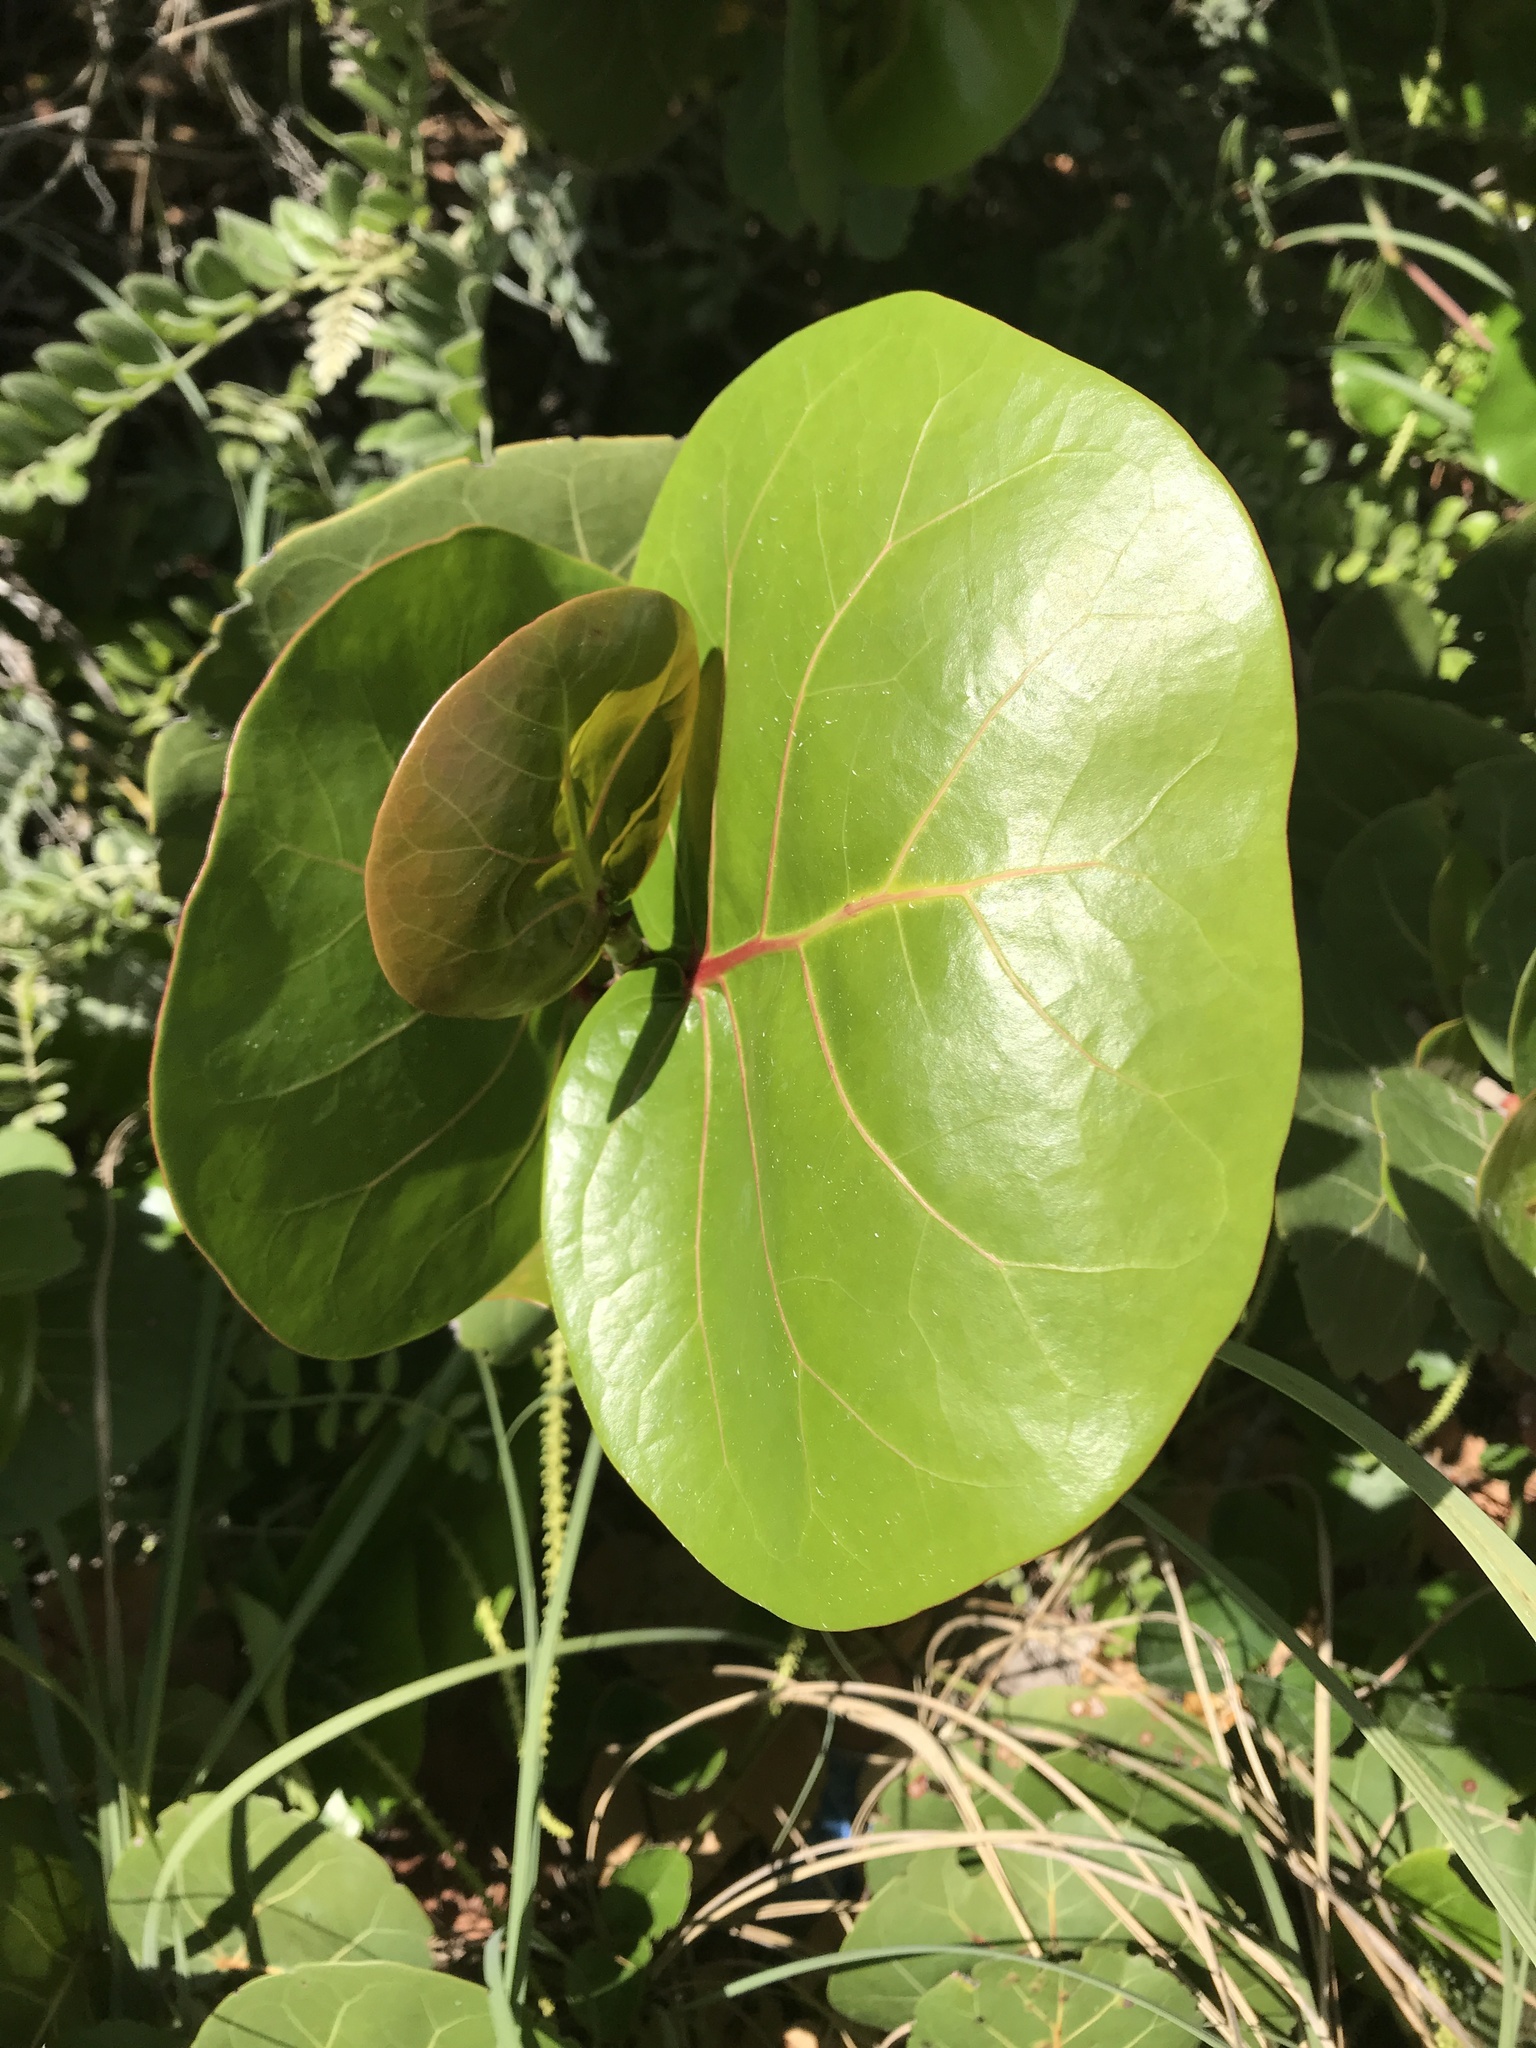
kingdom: Plantae
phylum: Tracheophyta
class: Magnoliopsida
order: Caryophyllales
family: Polygonaceae
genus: Coccoloba
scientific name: Coccoloba uvifera
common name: Seagrape
